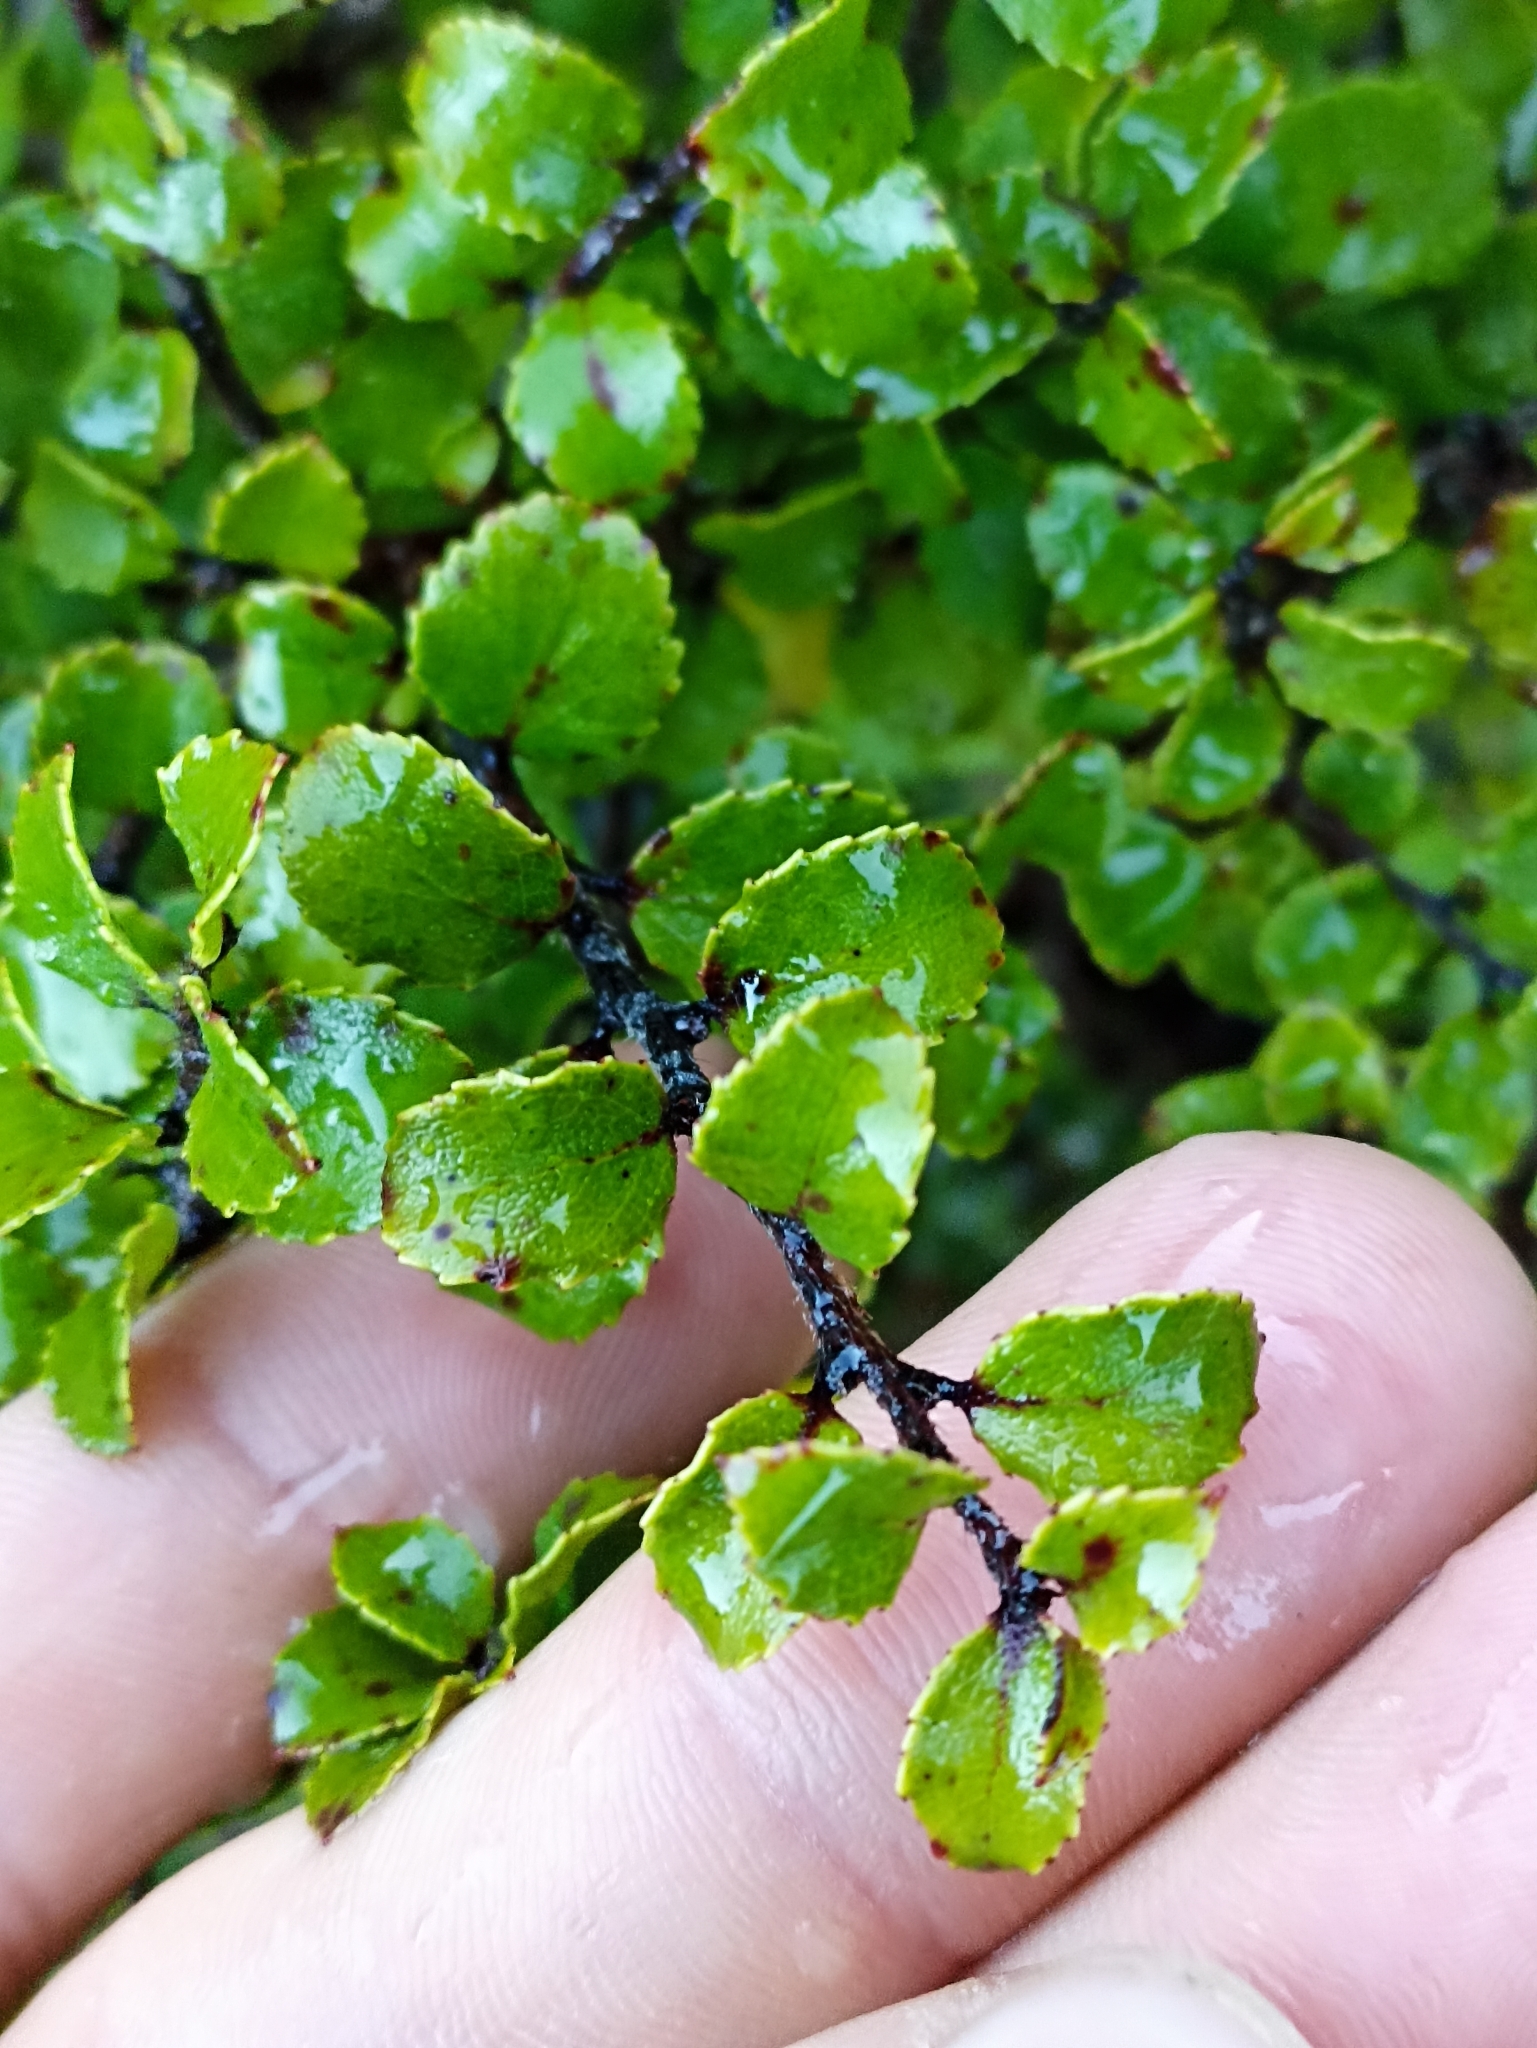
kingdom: Plantae
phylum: Tracheophyta
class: Magnoliopsida
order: Ericales
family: Ericaceae
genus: Gaultheria
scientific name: Gaultheria antipoda
